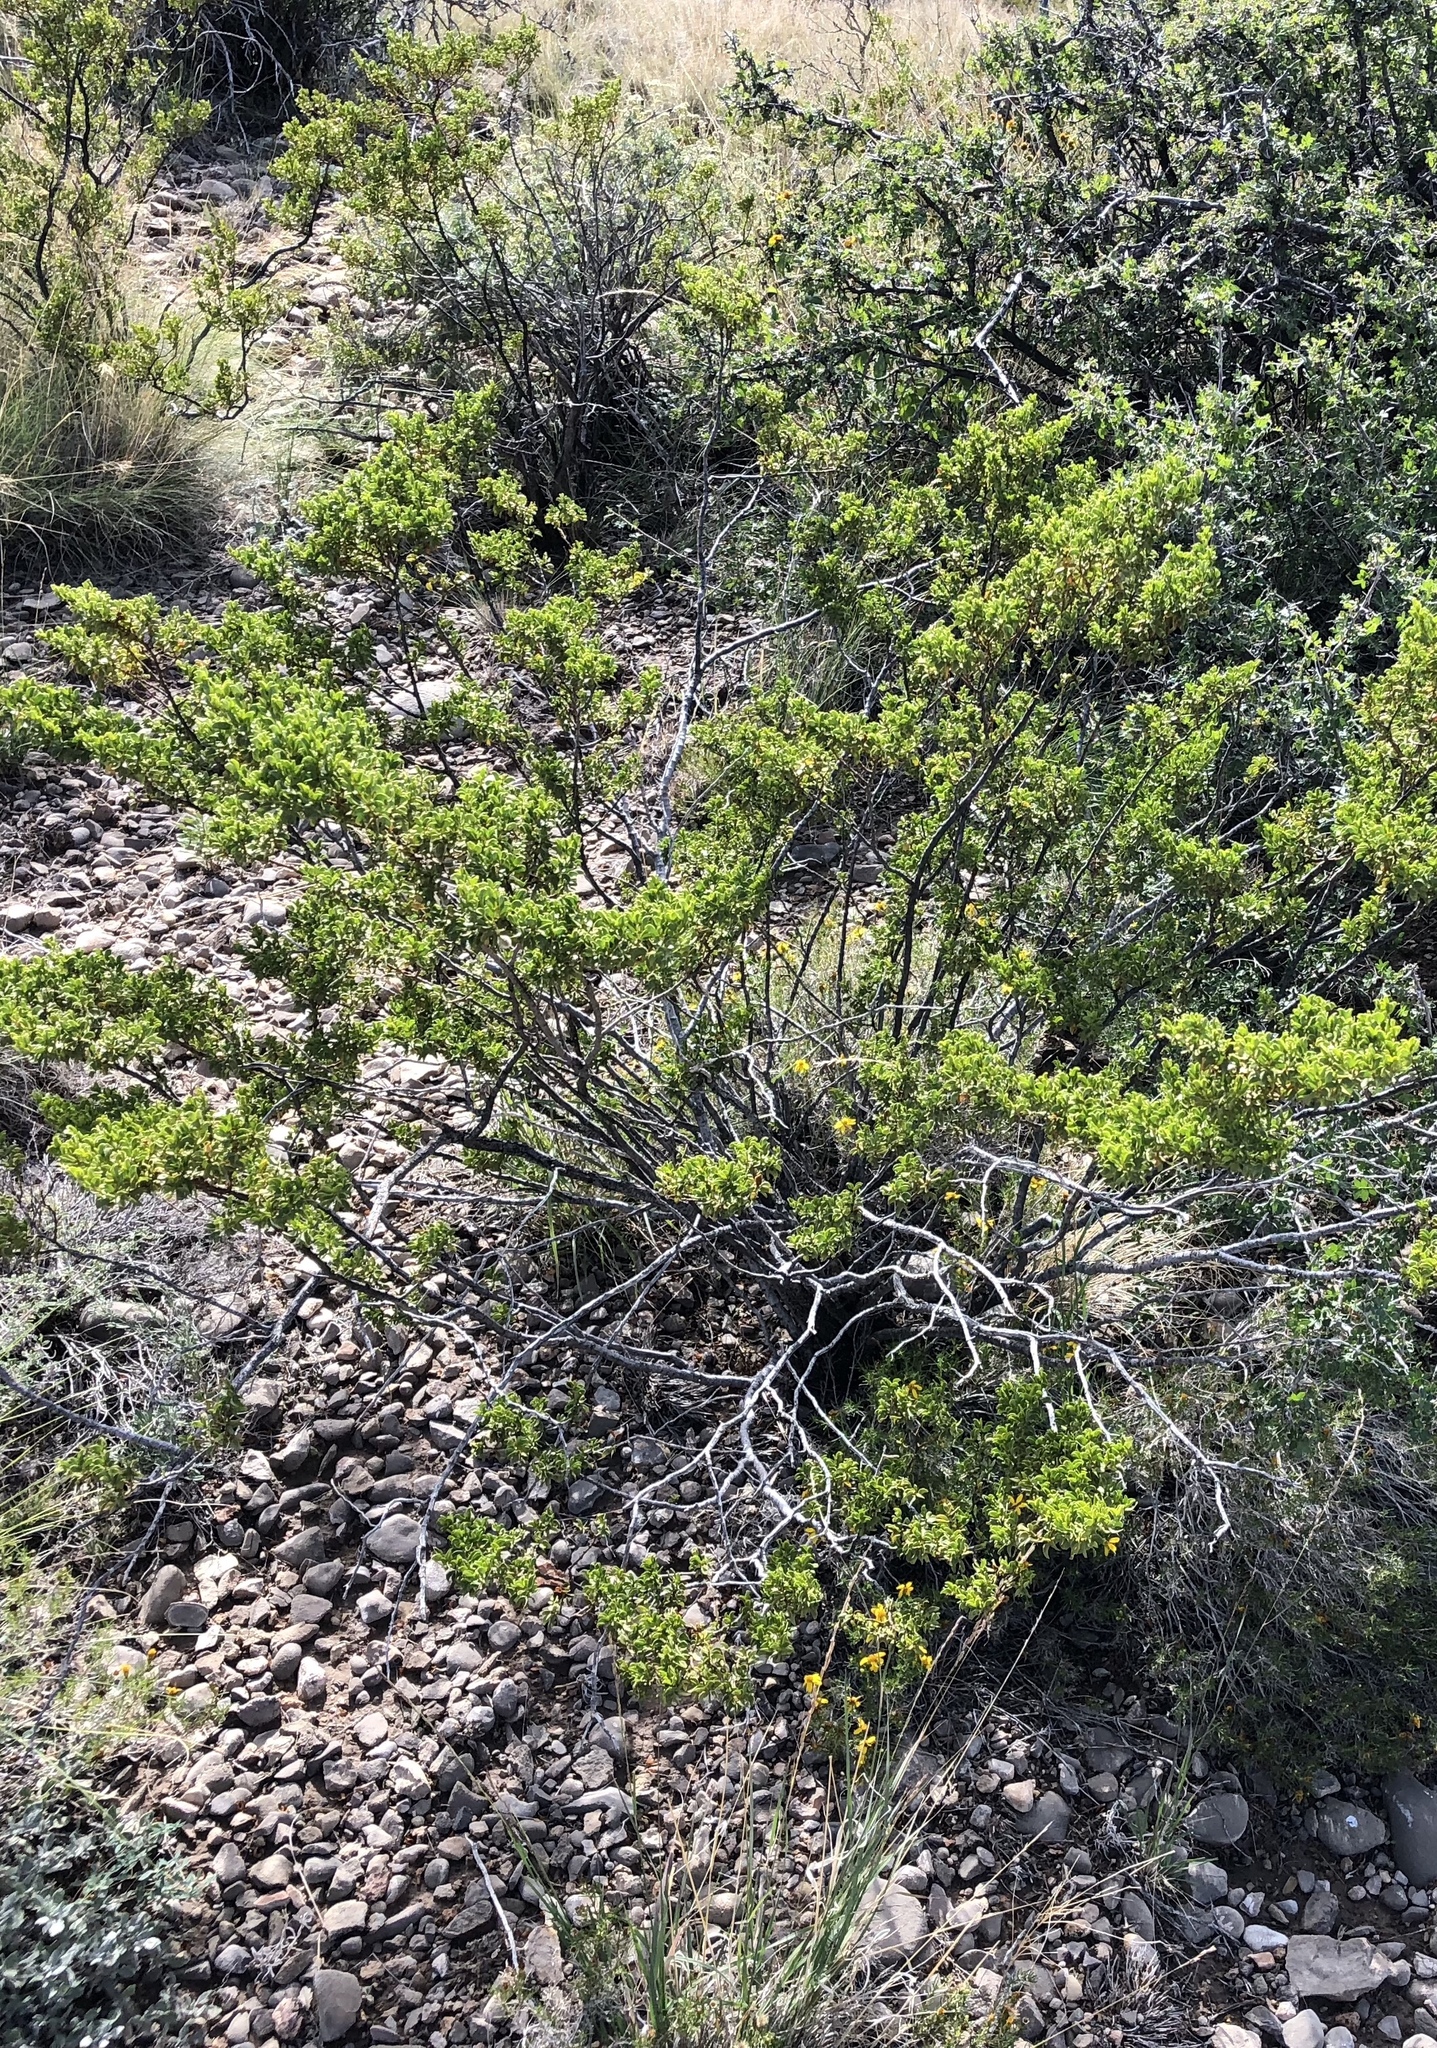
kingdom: Plantae
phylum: Tracheophyta
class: Magnoliopsida
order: Zygophyllales
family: Zygophyllaceae
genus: Larrea
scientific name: Larrea tridentata
